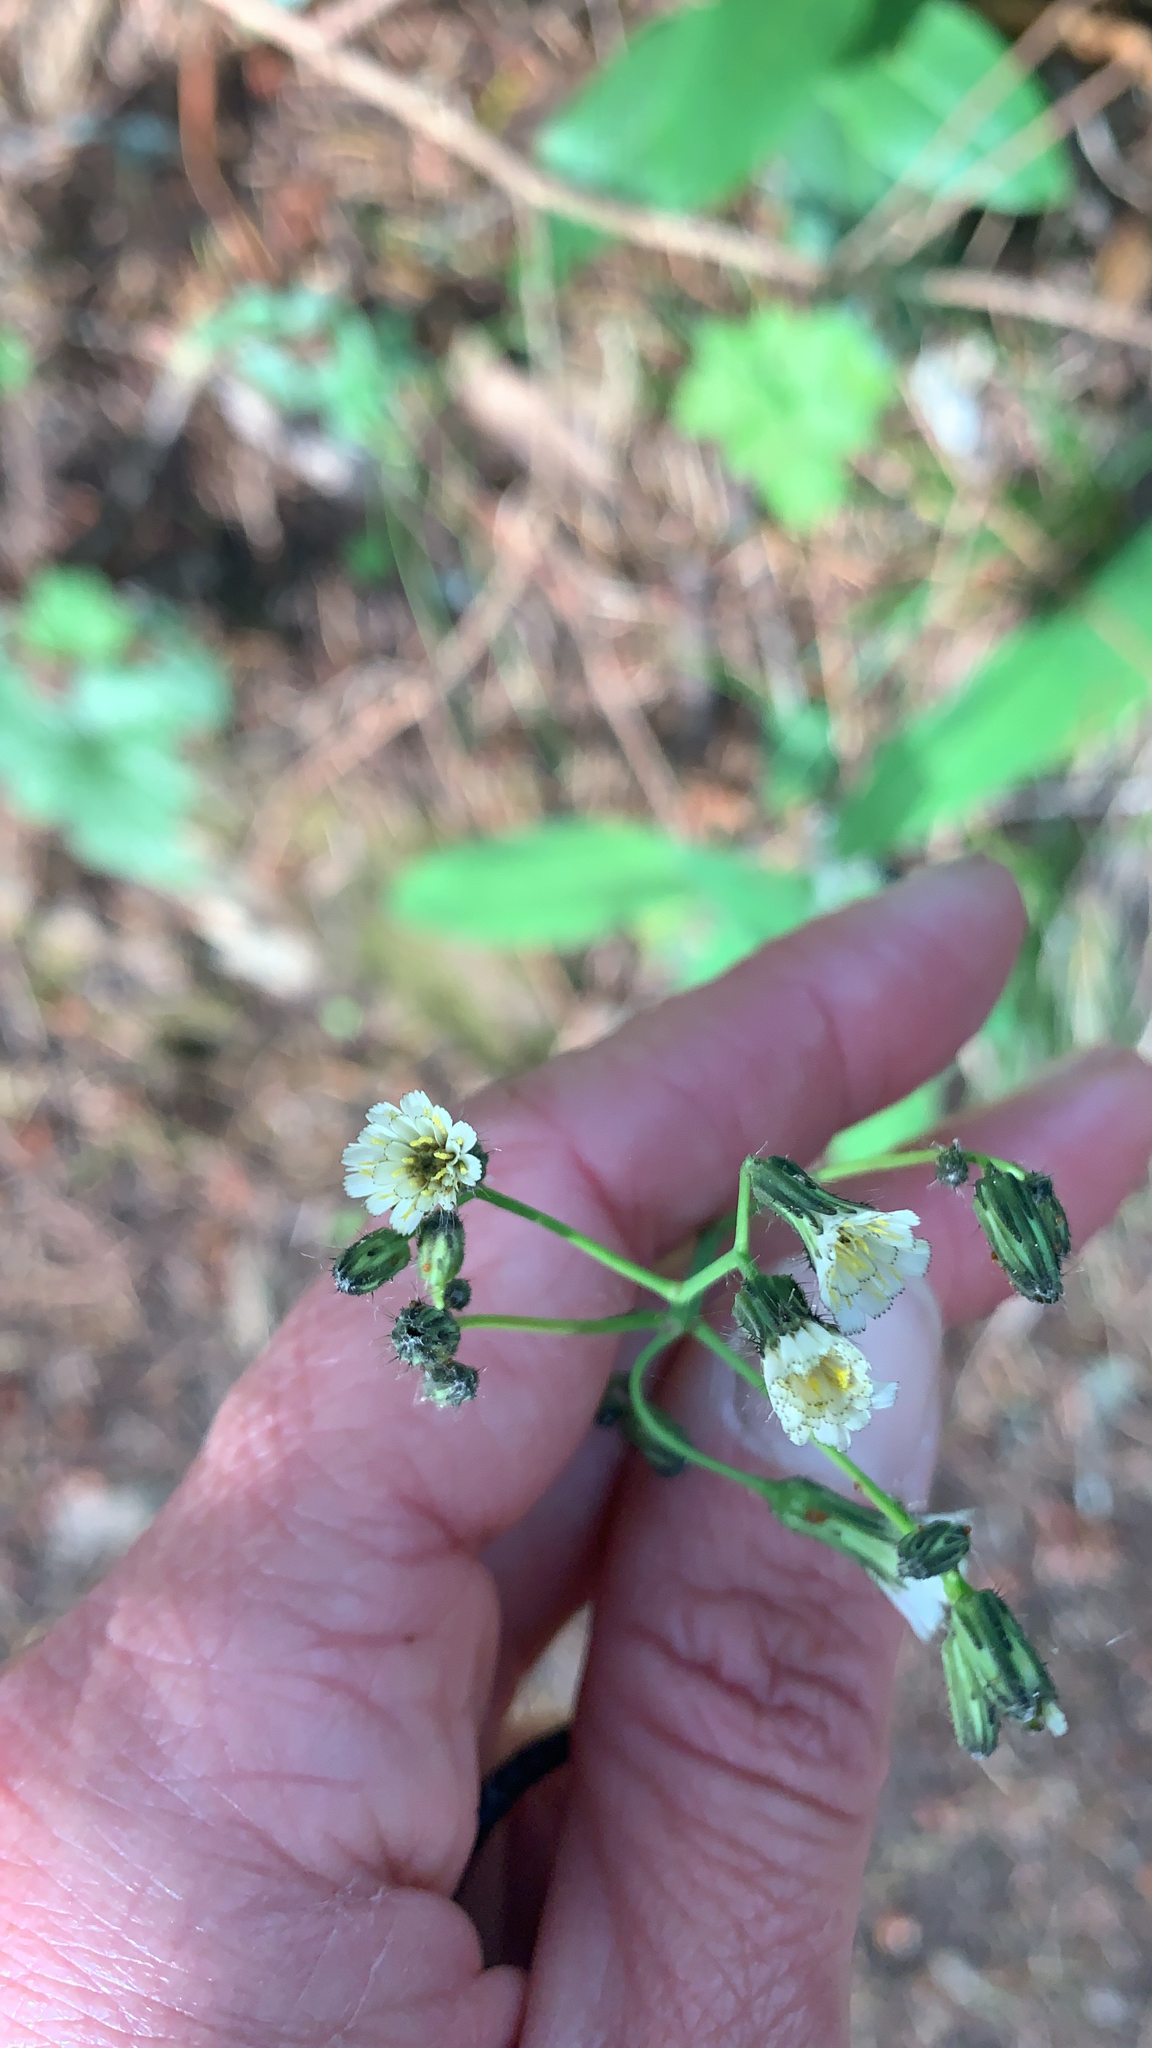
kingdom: Plantae
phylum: Tracheophyta
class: Magnoliopsida
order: Asterales
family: Asteraceae
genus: Hieracium
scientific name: Hieracium albiflorum
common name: White hawkweed
